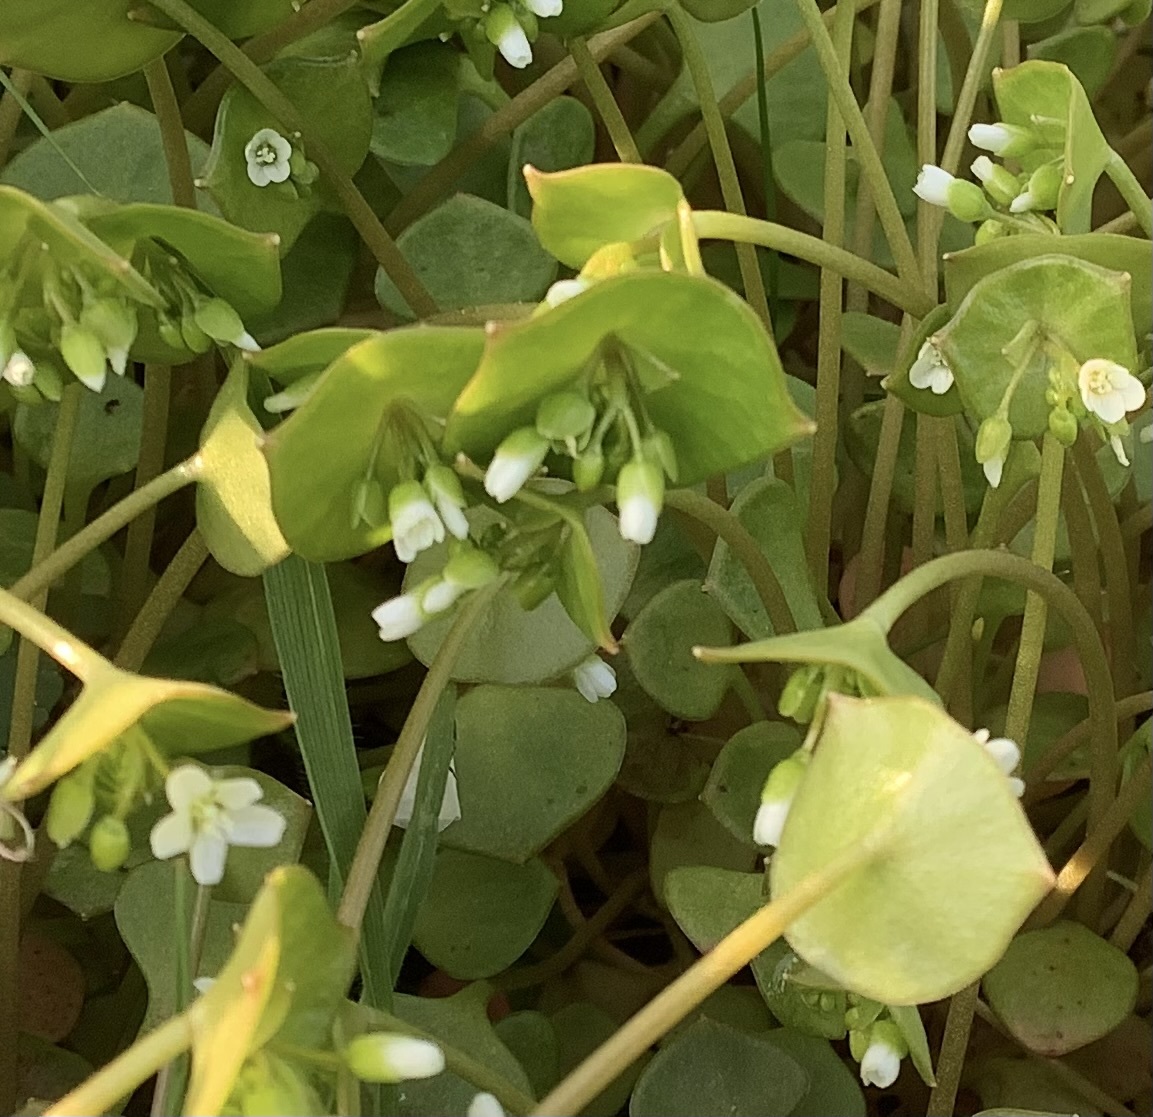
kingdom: Plantae
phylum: Tracheophyta
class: Magnoliopsida
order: Caryophyllales
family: Montiaceae
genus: Claytonia
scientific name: Claytonia perfoliata
